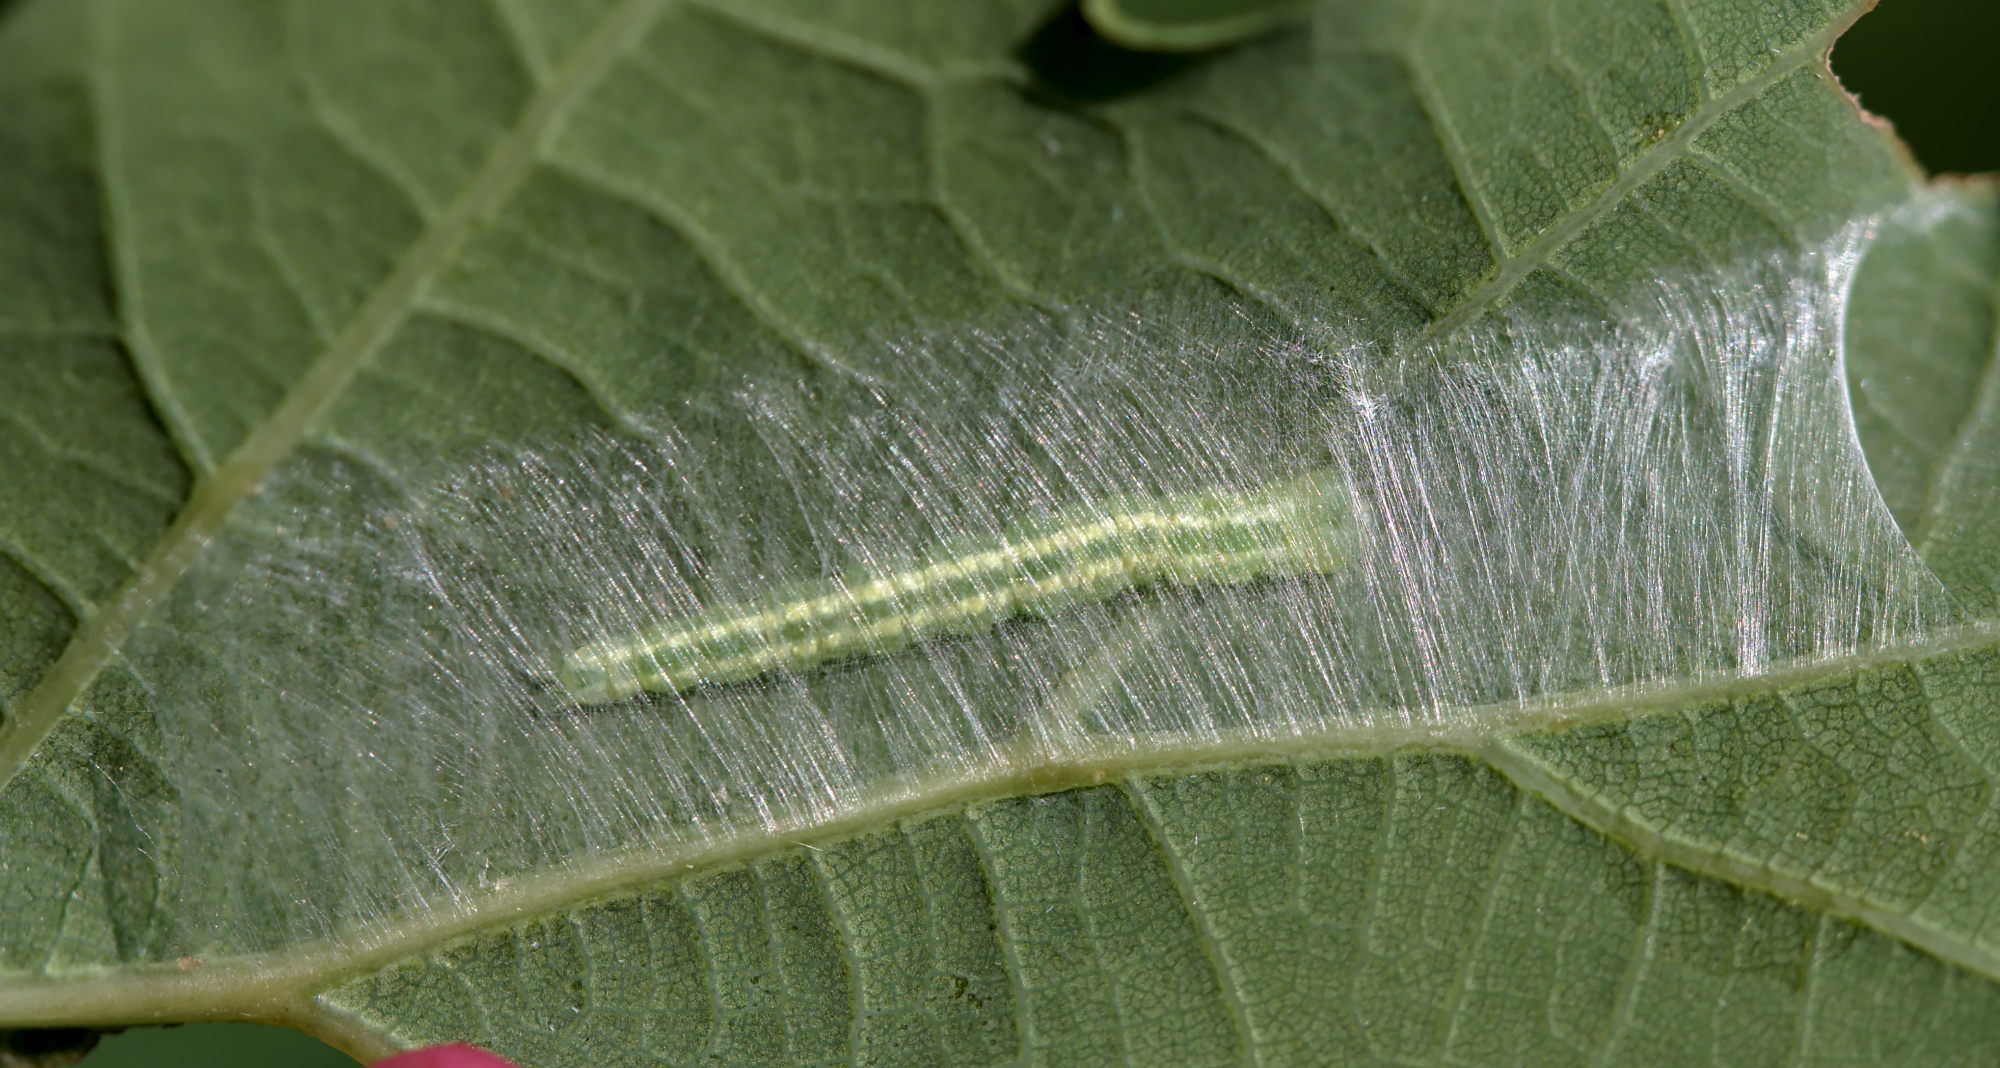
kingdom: Animalia
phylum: Arthropoda
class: Insecta
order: Lepidoptera
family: Peleopodidae
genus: Carcina
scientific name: Carcina quercana
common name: Moth
